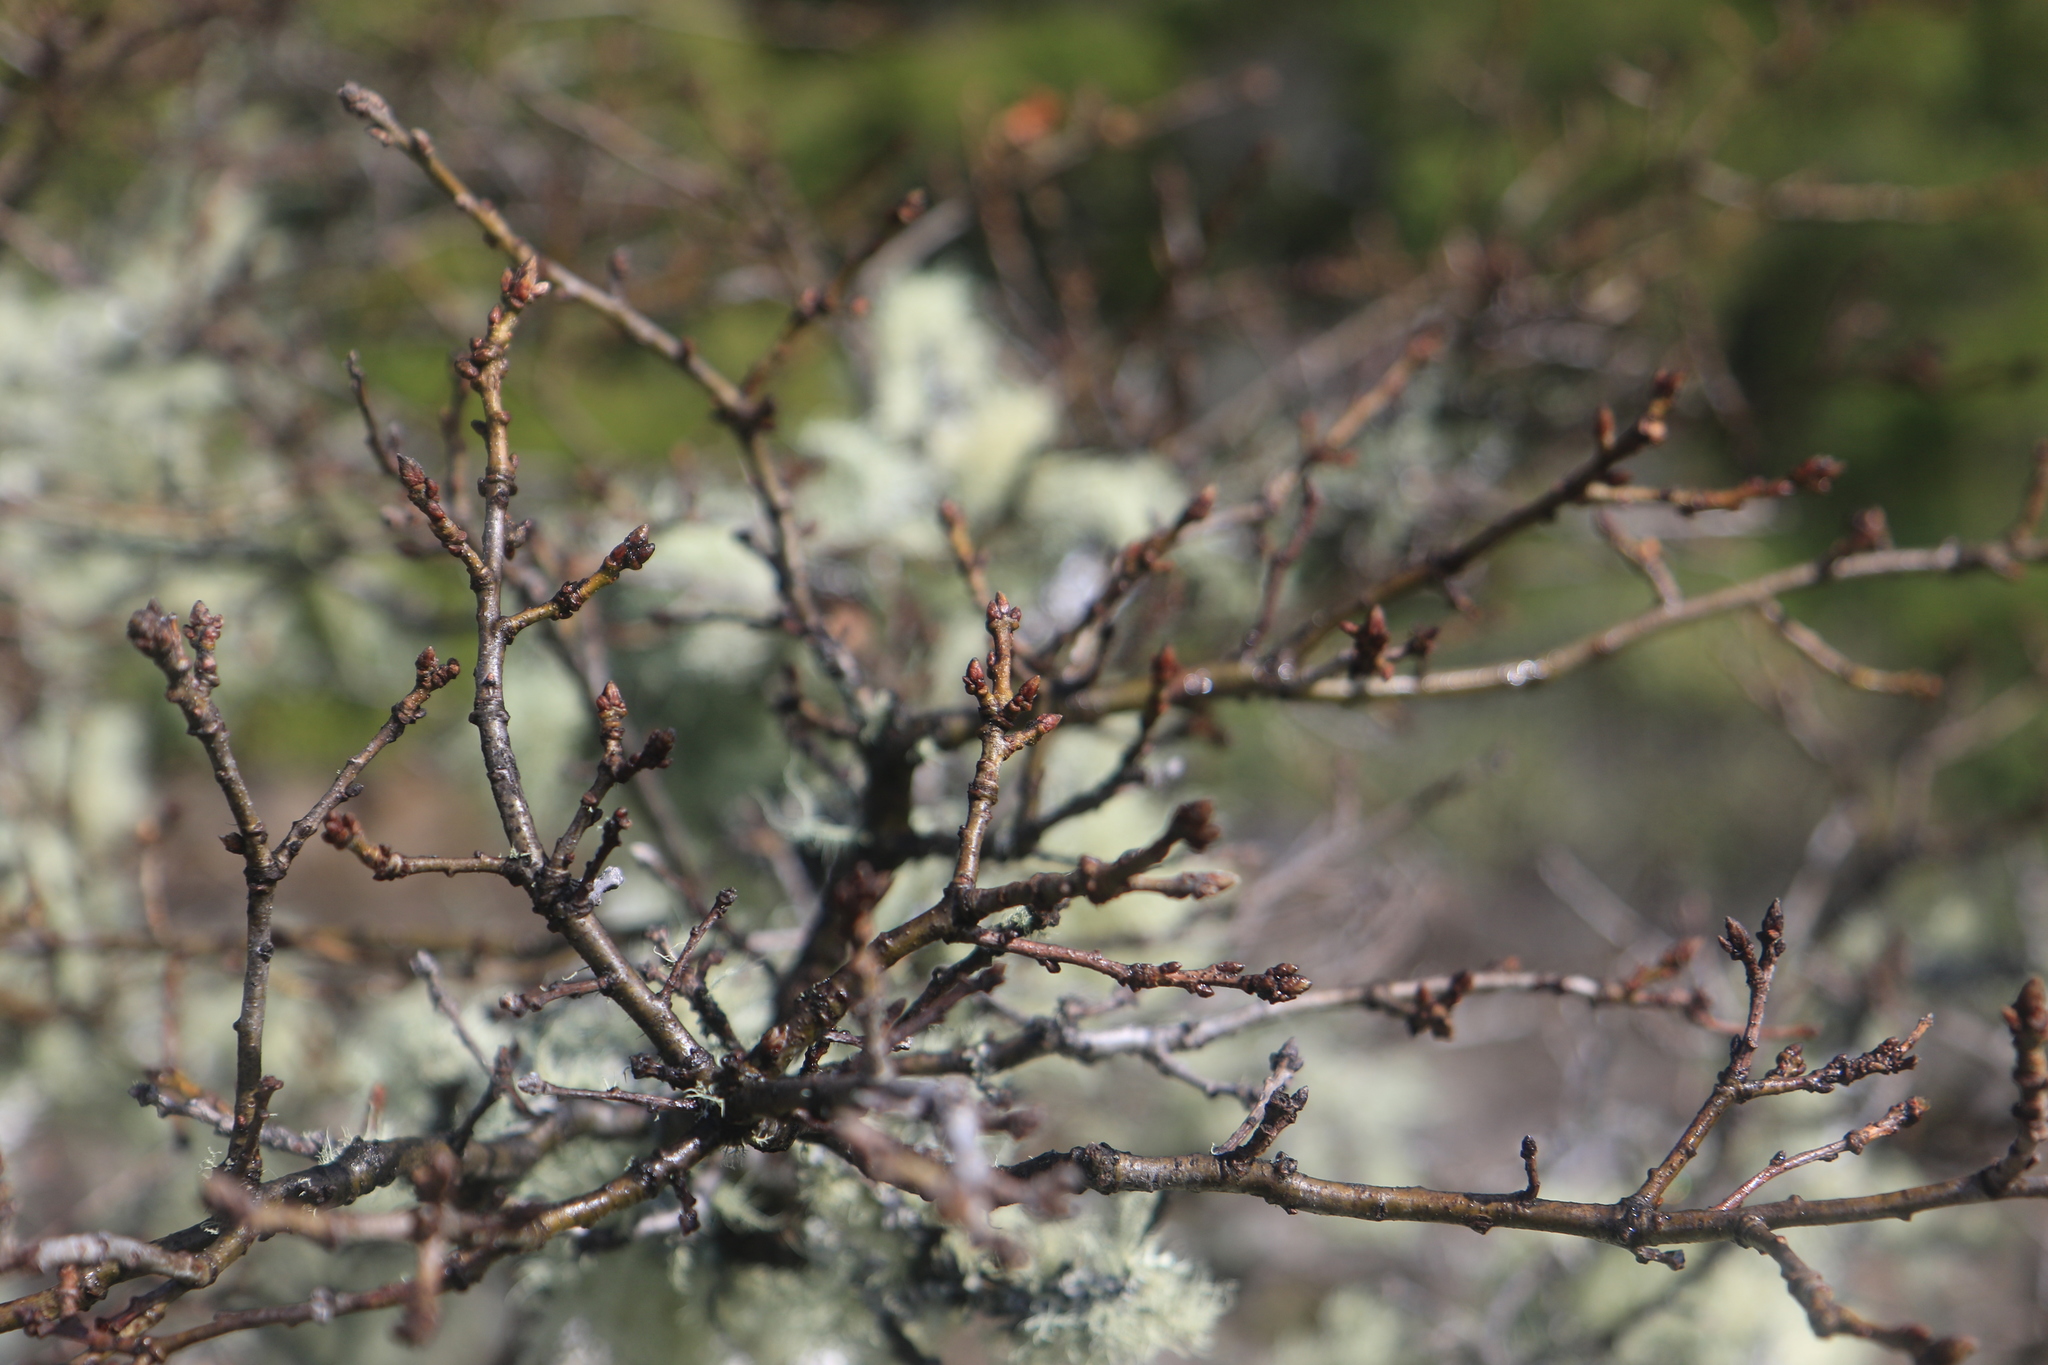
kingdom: Plantae
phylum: Tracheophyta
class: Magnoliopsida
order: Fagales
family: Fagaceae
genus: Quercus
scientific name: Quercus garryana
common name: Garry oak
